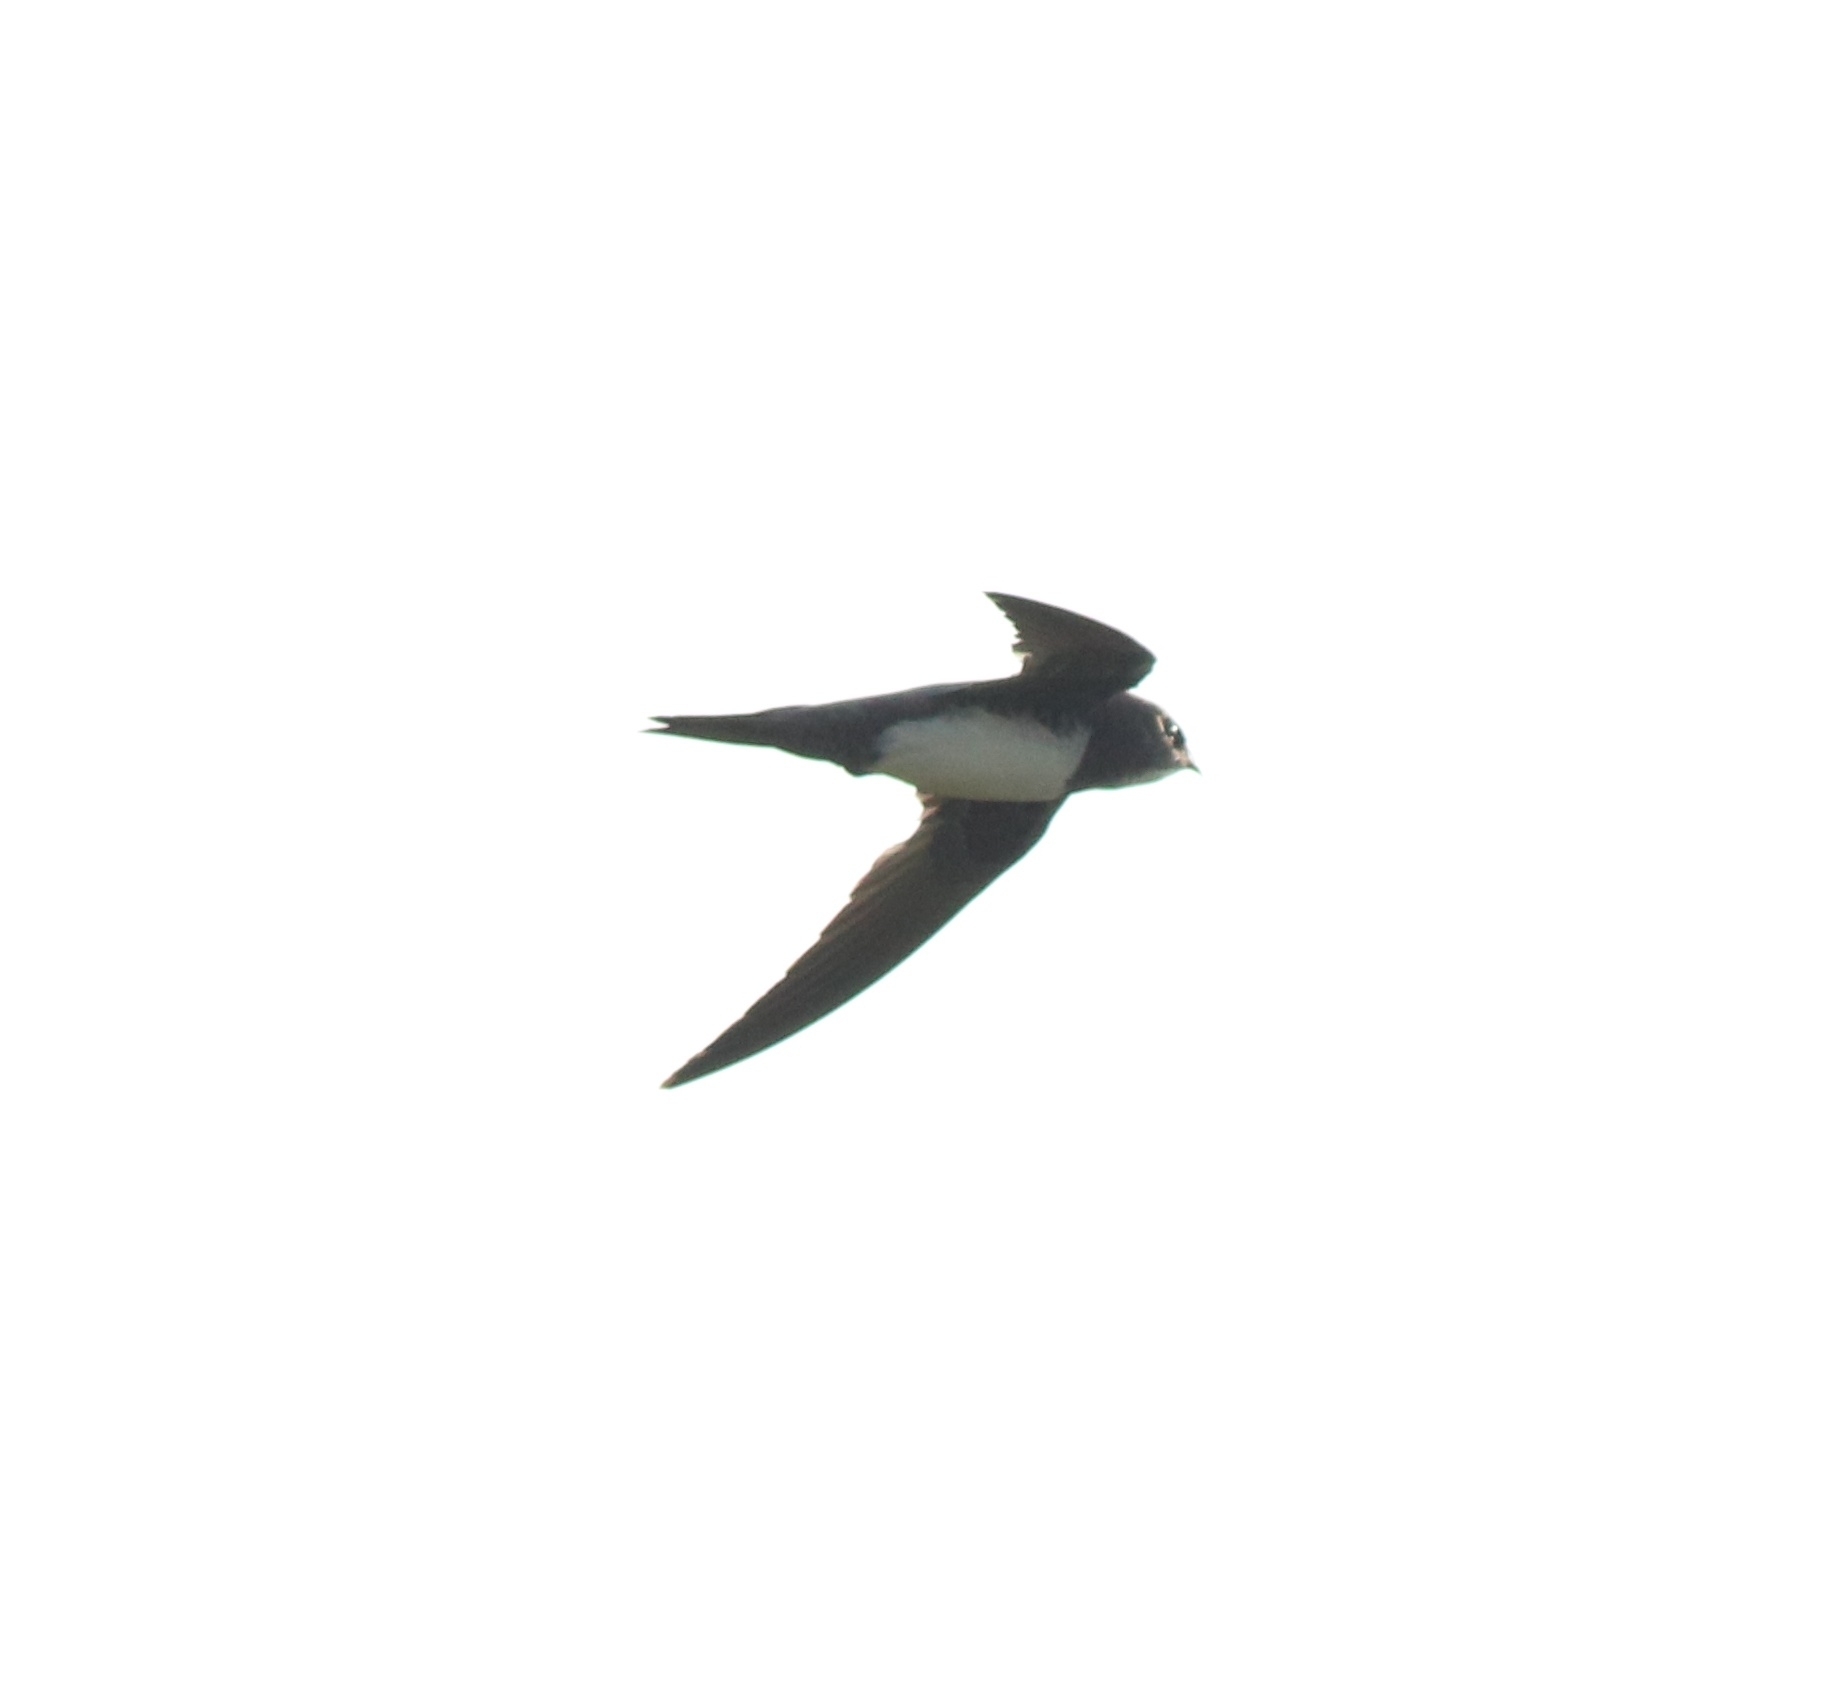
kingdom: Animalia
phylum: Chordata
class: Aves
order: Apodiformes
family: Apodidae
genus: Tachymarptis
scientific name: Tachymarptis melba
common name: Alpine swift
